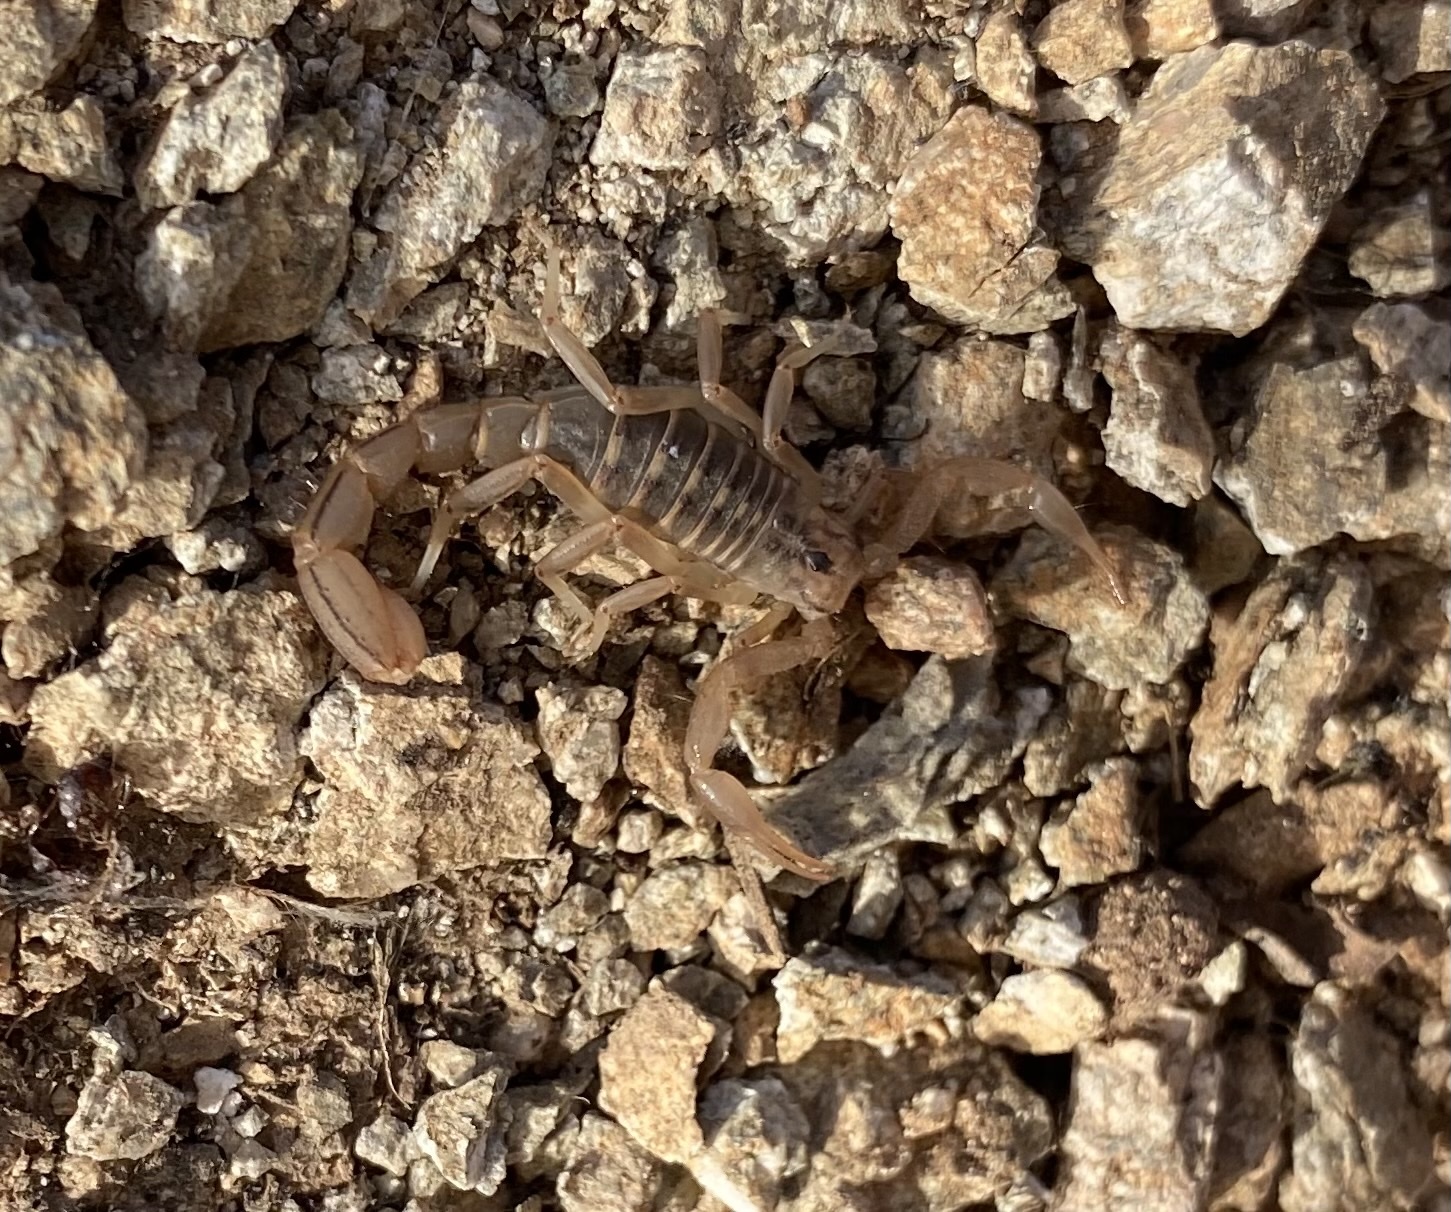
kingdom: Animalia
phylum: Arthropoda
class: Arachnida
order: Scorpiones
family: Vaejovidae
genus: Paravaejovis
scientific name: Paravaejovis spinigerus
